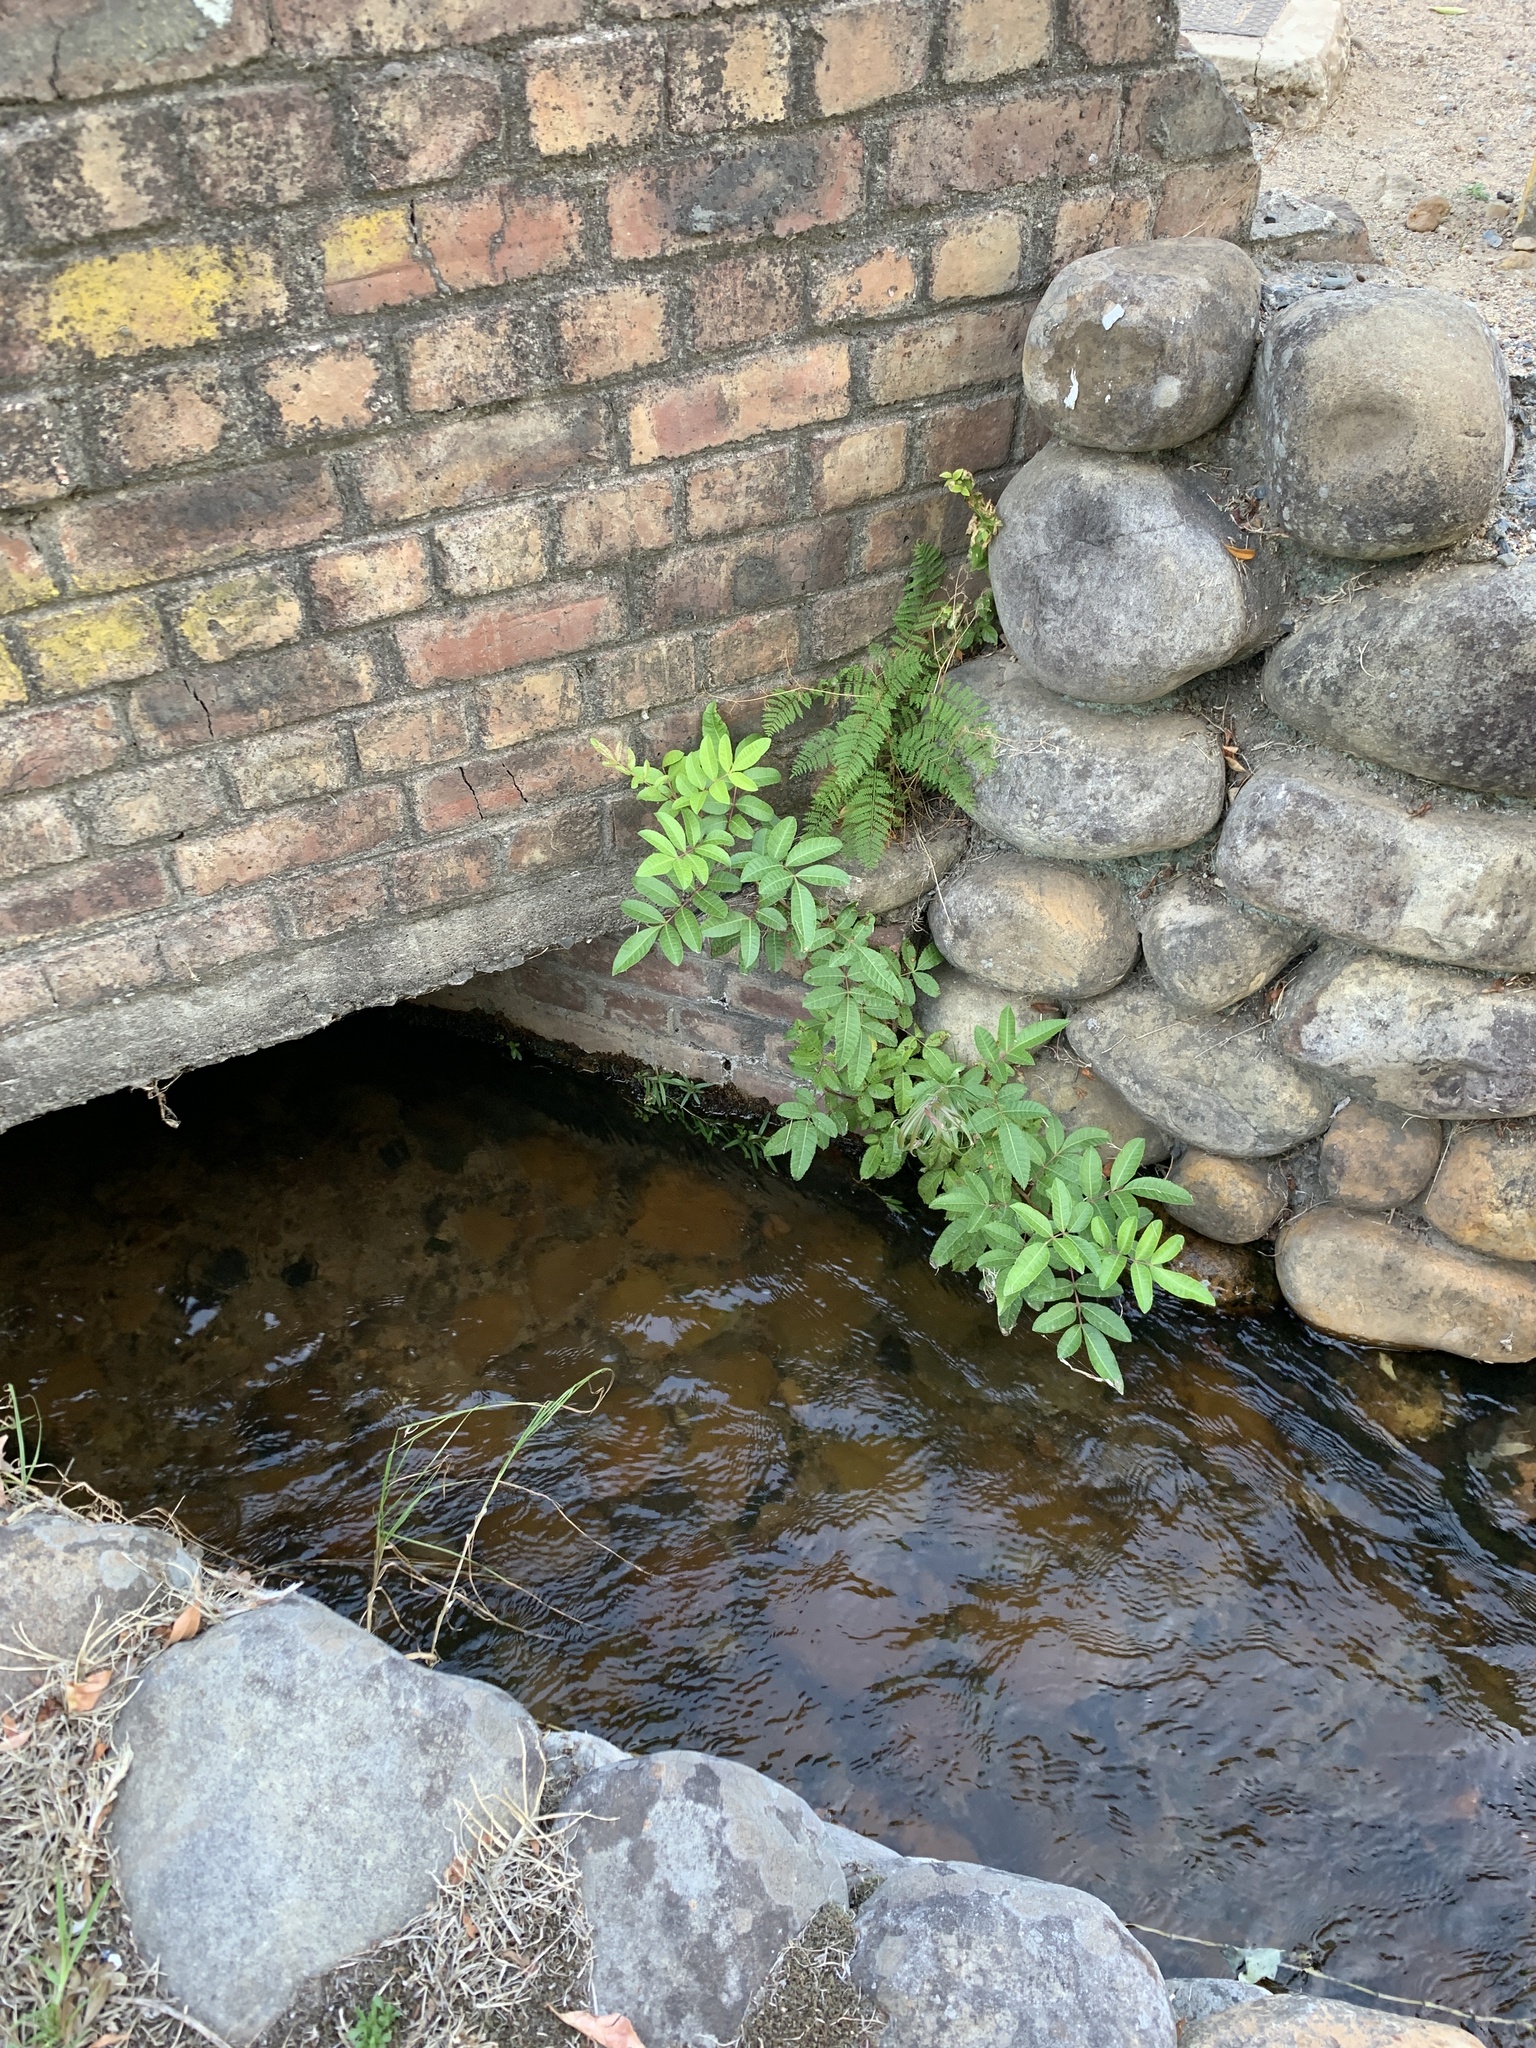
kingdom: Plantae
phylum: Tracheophyta
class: Magnoliopsida
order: Sapindales
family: Anacardiaceae
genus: Schinus
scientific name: Schinus terebinthifolia
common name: Brazilian peppertree
